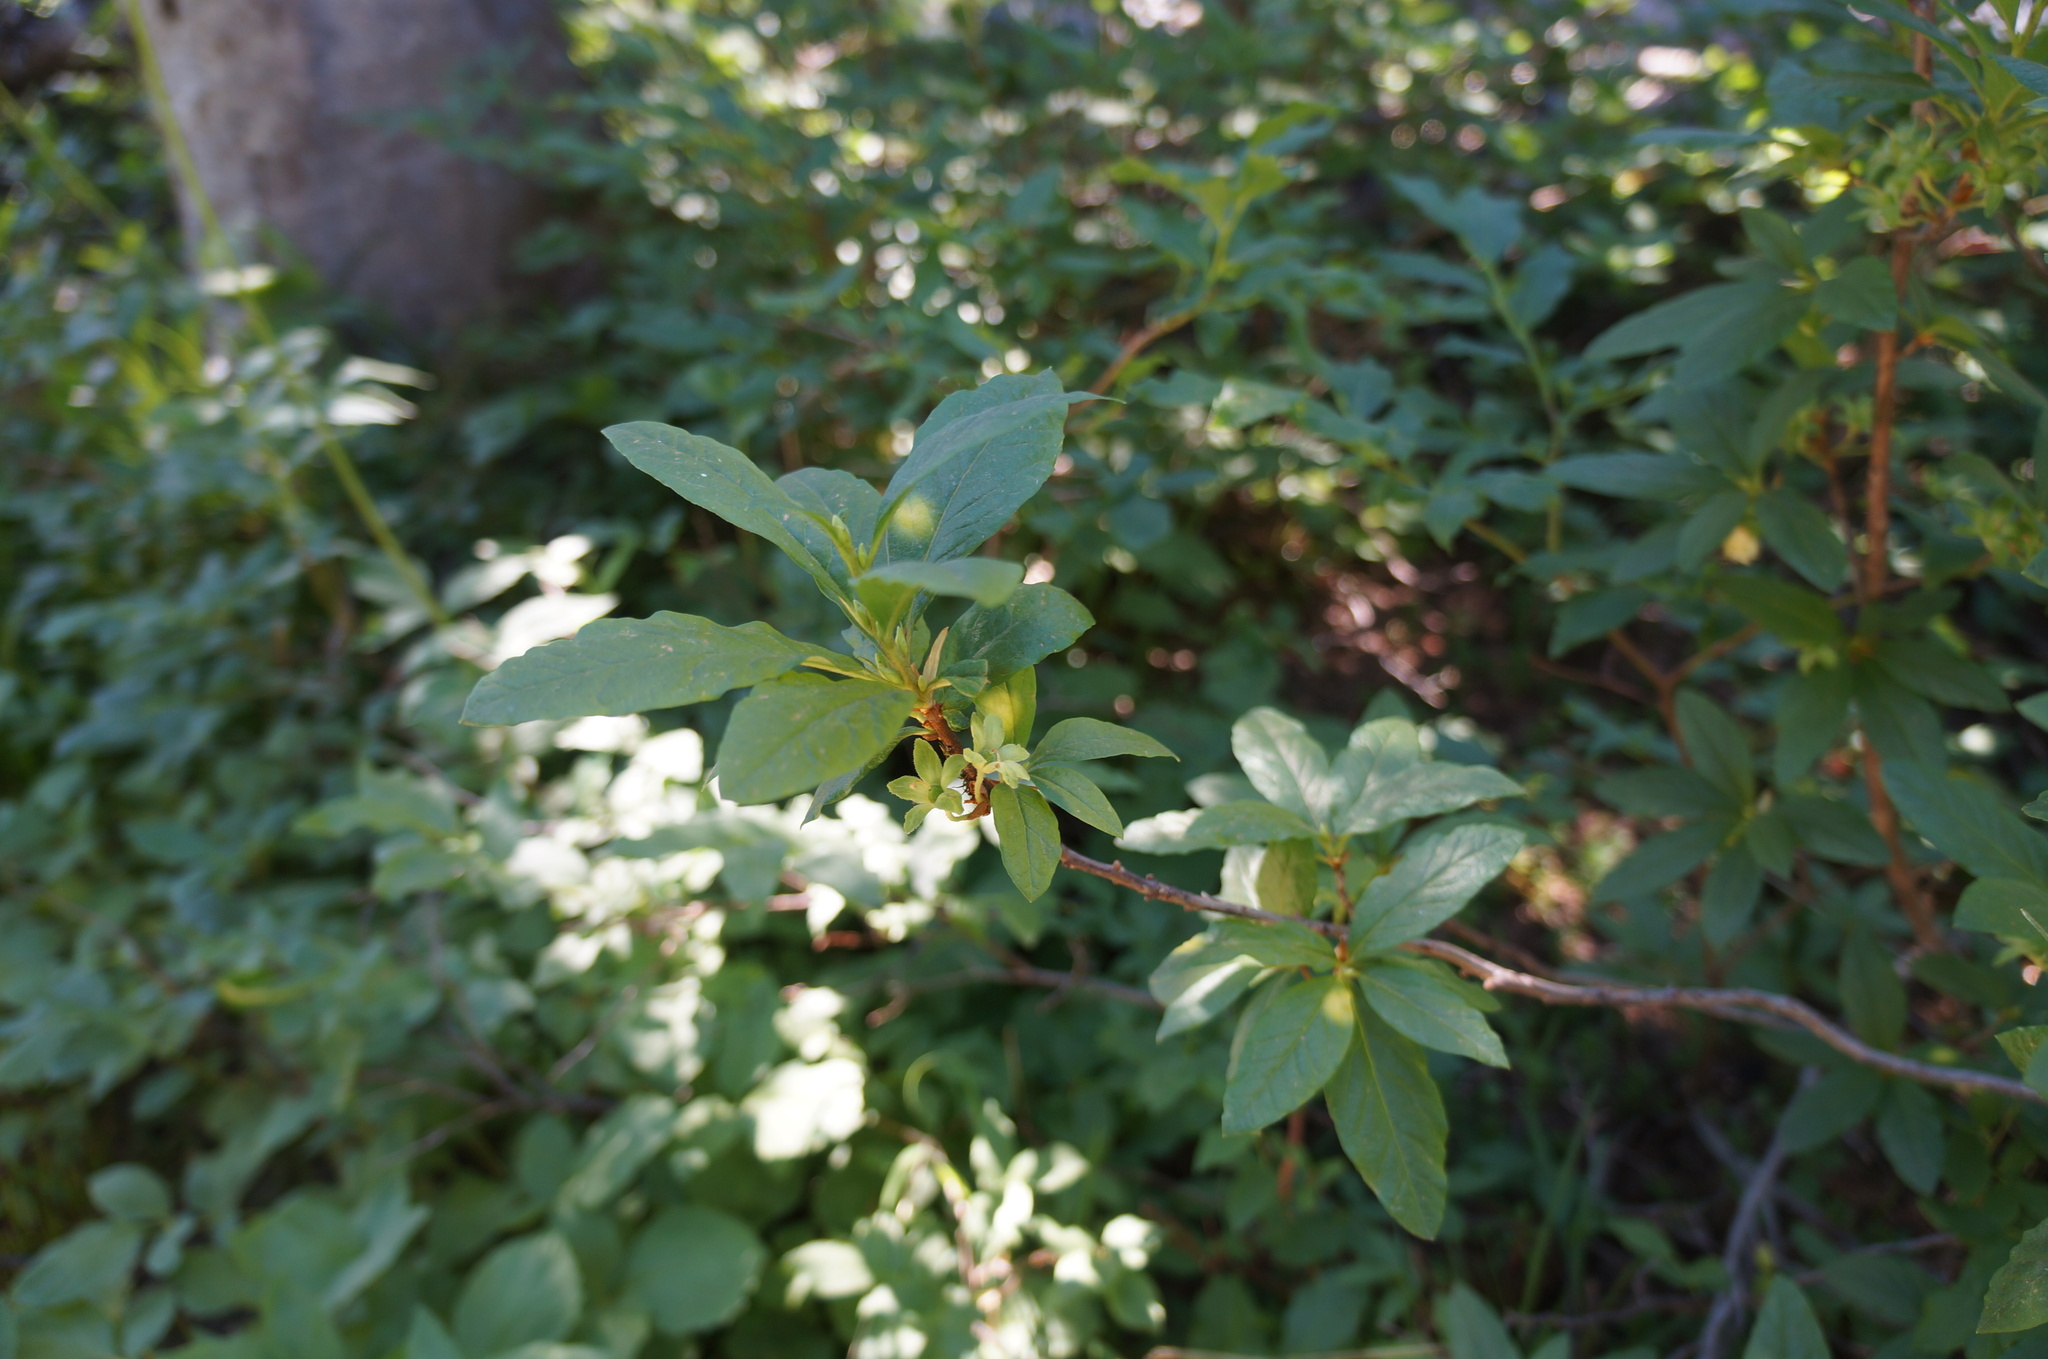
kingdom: Plantae
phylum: Tracheophyta
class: Magnoliopsida
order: Ericales
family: Ericaceae
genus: Rhododendron
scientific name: Rhododendron albiflorum
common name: White rhododendron
